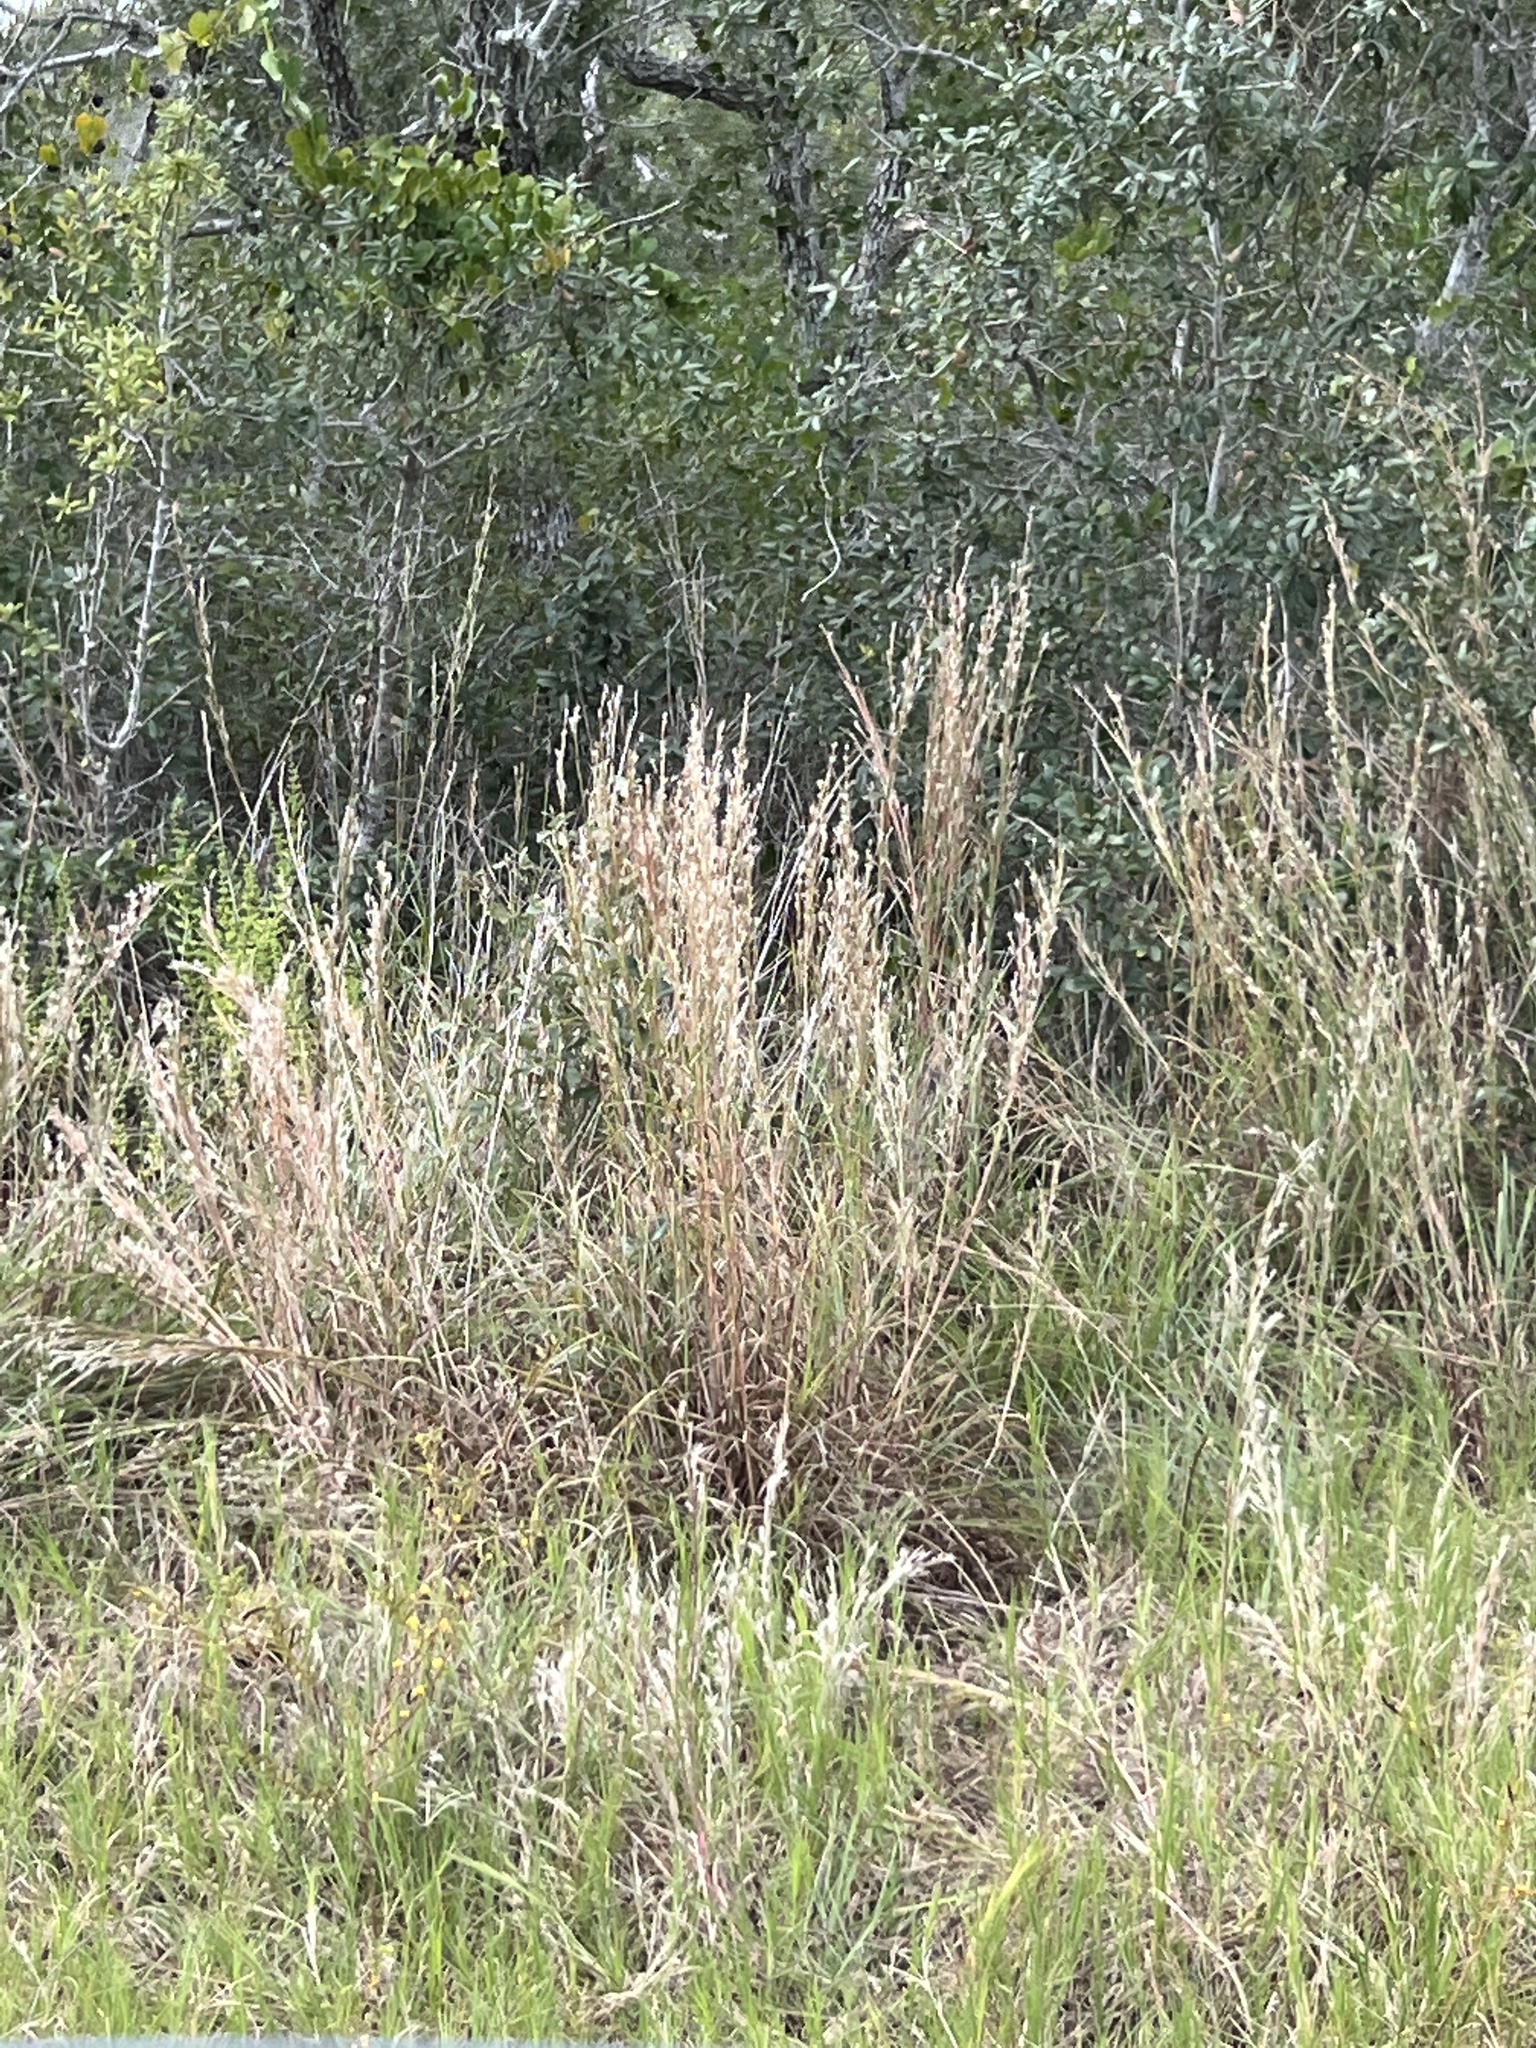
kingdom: Plantae
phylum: Tracheophyta
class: Liliopsida
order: Poales
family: Poaceae
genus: Schizachyrium
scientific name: Schizachyrium scoparium
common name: Little bluestem
